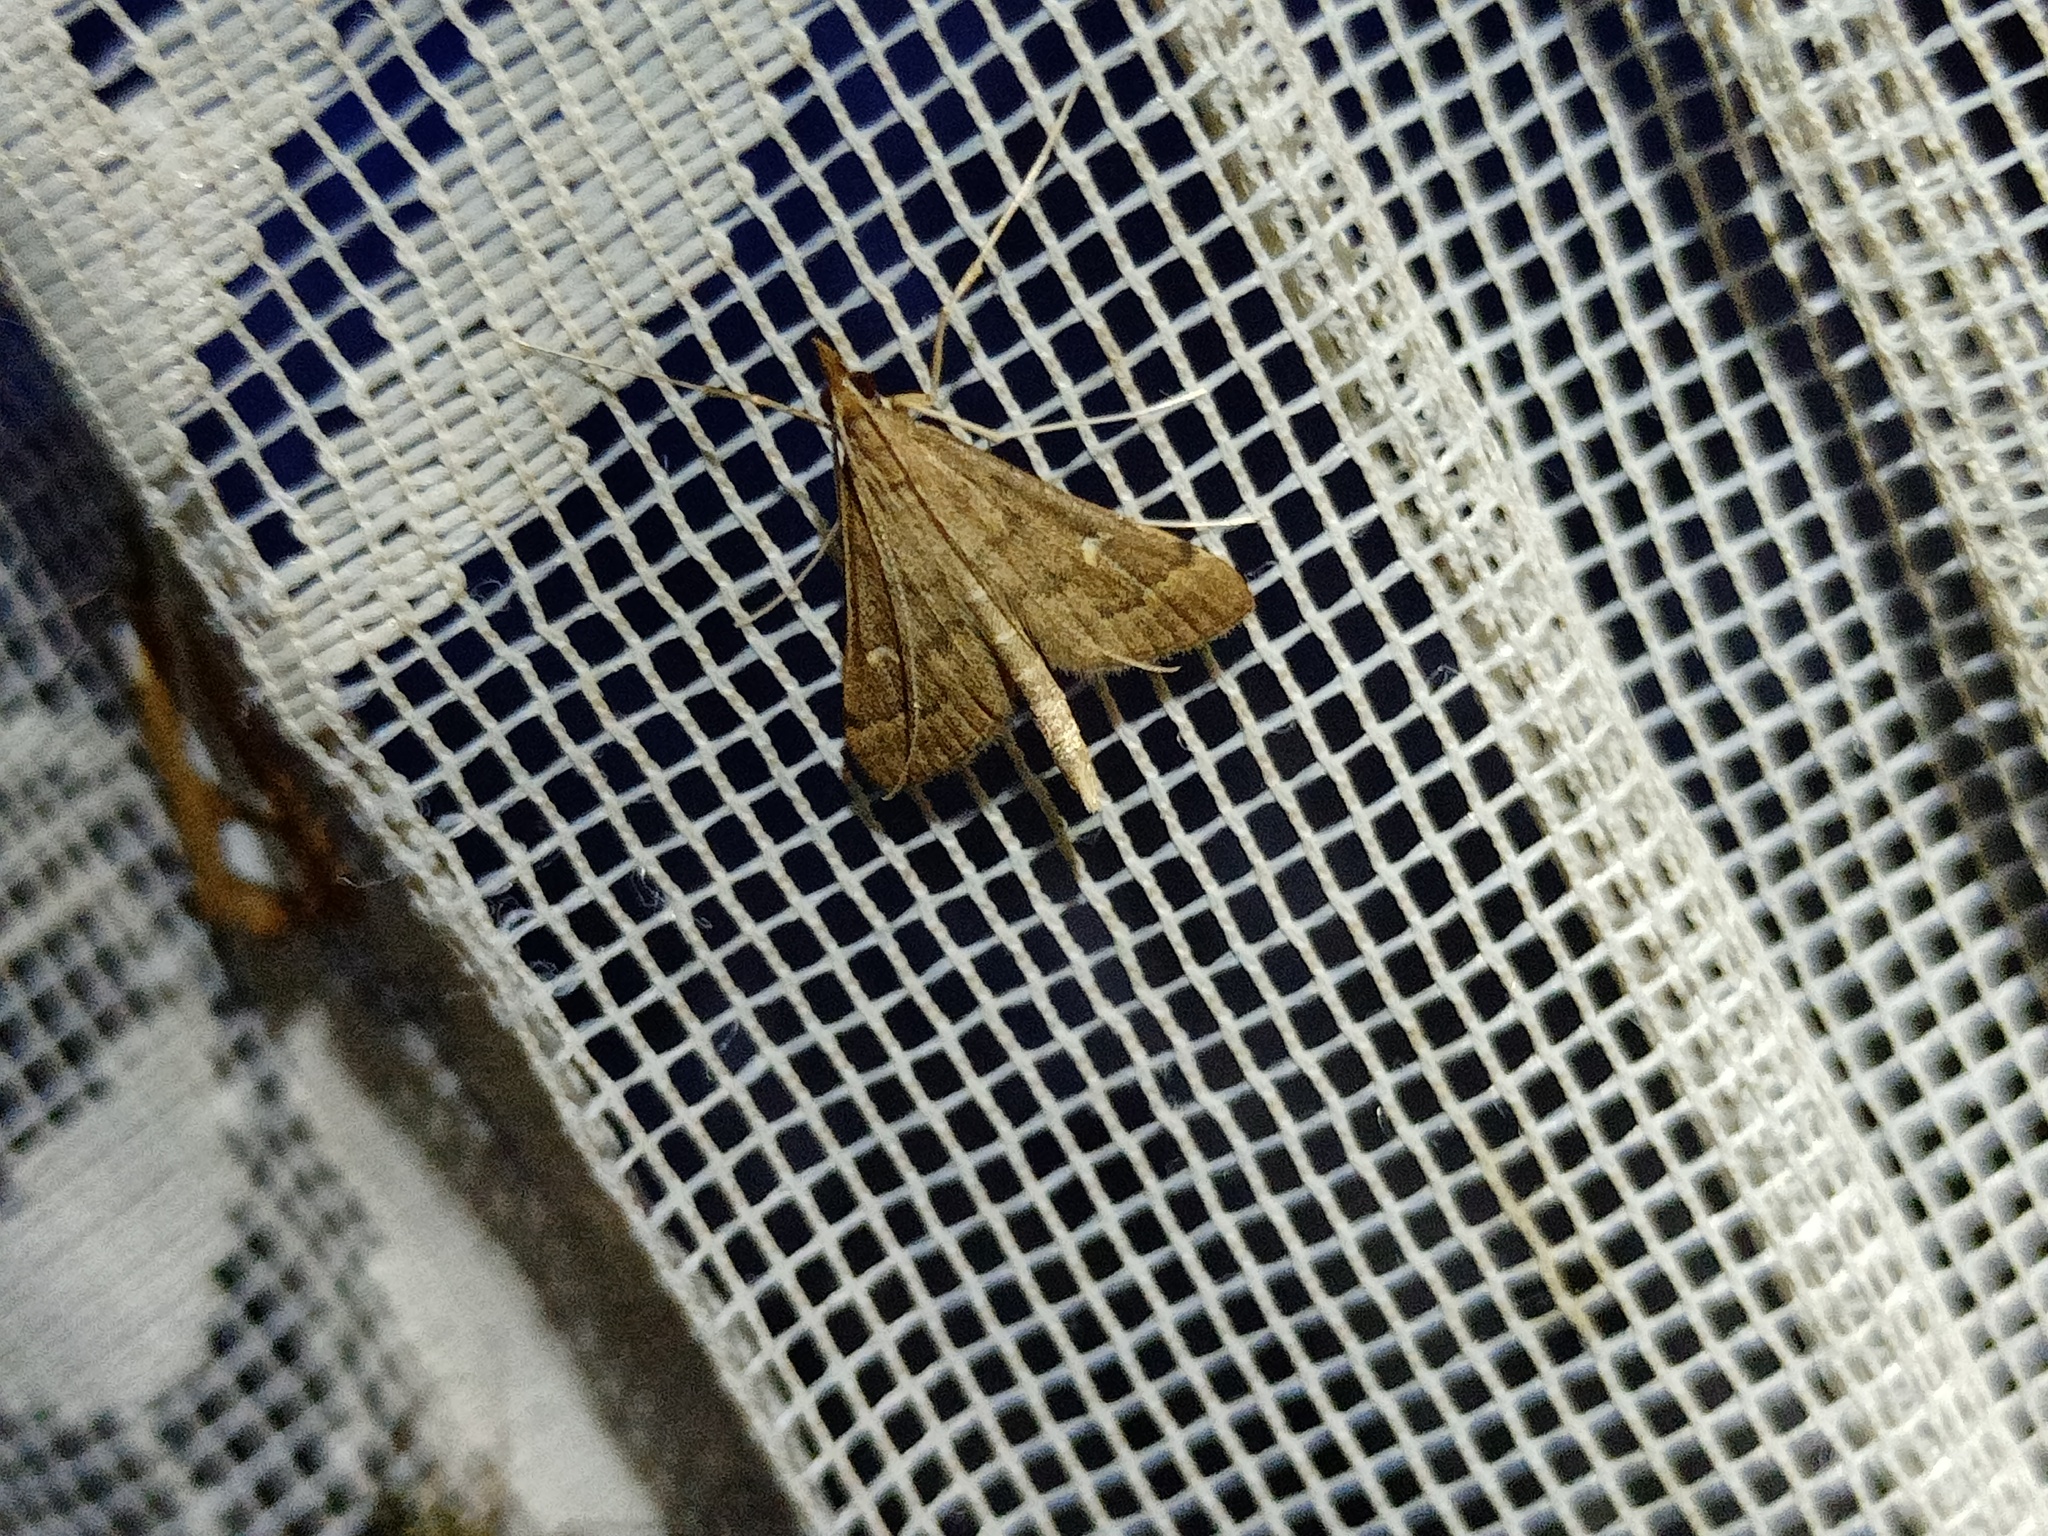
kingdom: Animalia
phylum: Arthropoda
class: Insecta
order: Lepidoptera
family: Crambidae
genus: Stenia
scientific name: Stenia Dolicharthria punctalis
